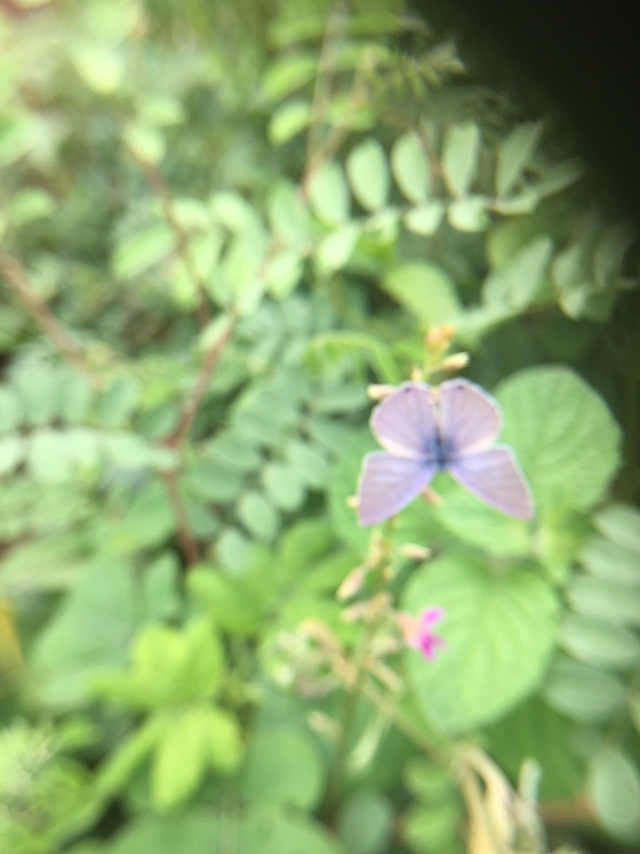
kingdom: Animalia
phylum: Arthropoda
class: Insecta
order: Lepidoptera
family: Lycaenidae
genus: Catochrysops
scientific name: Catochrysops strabo
